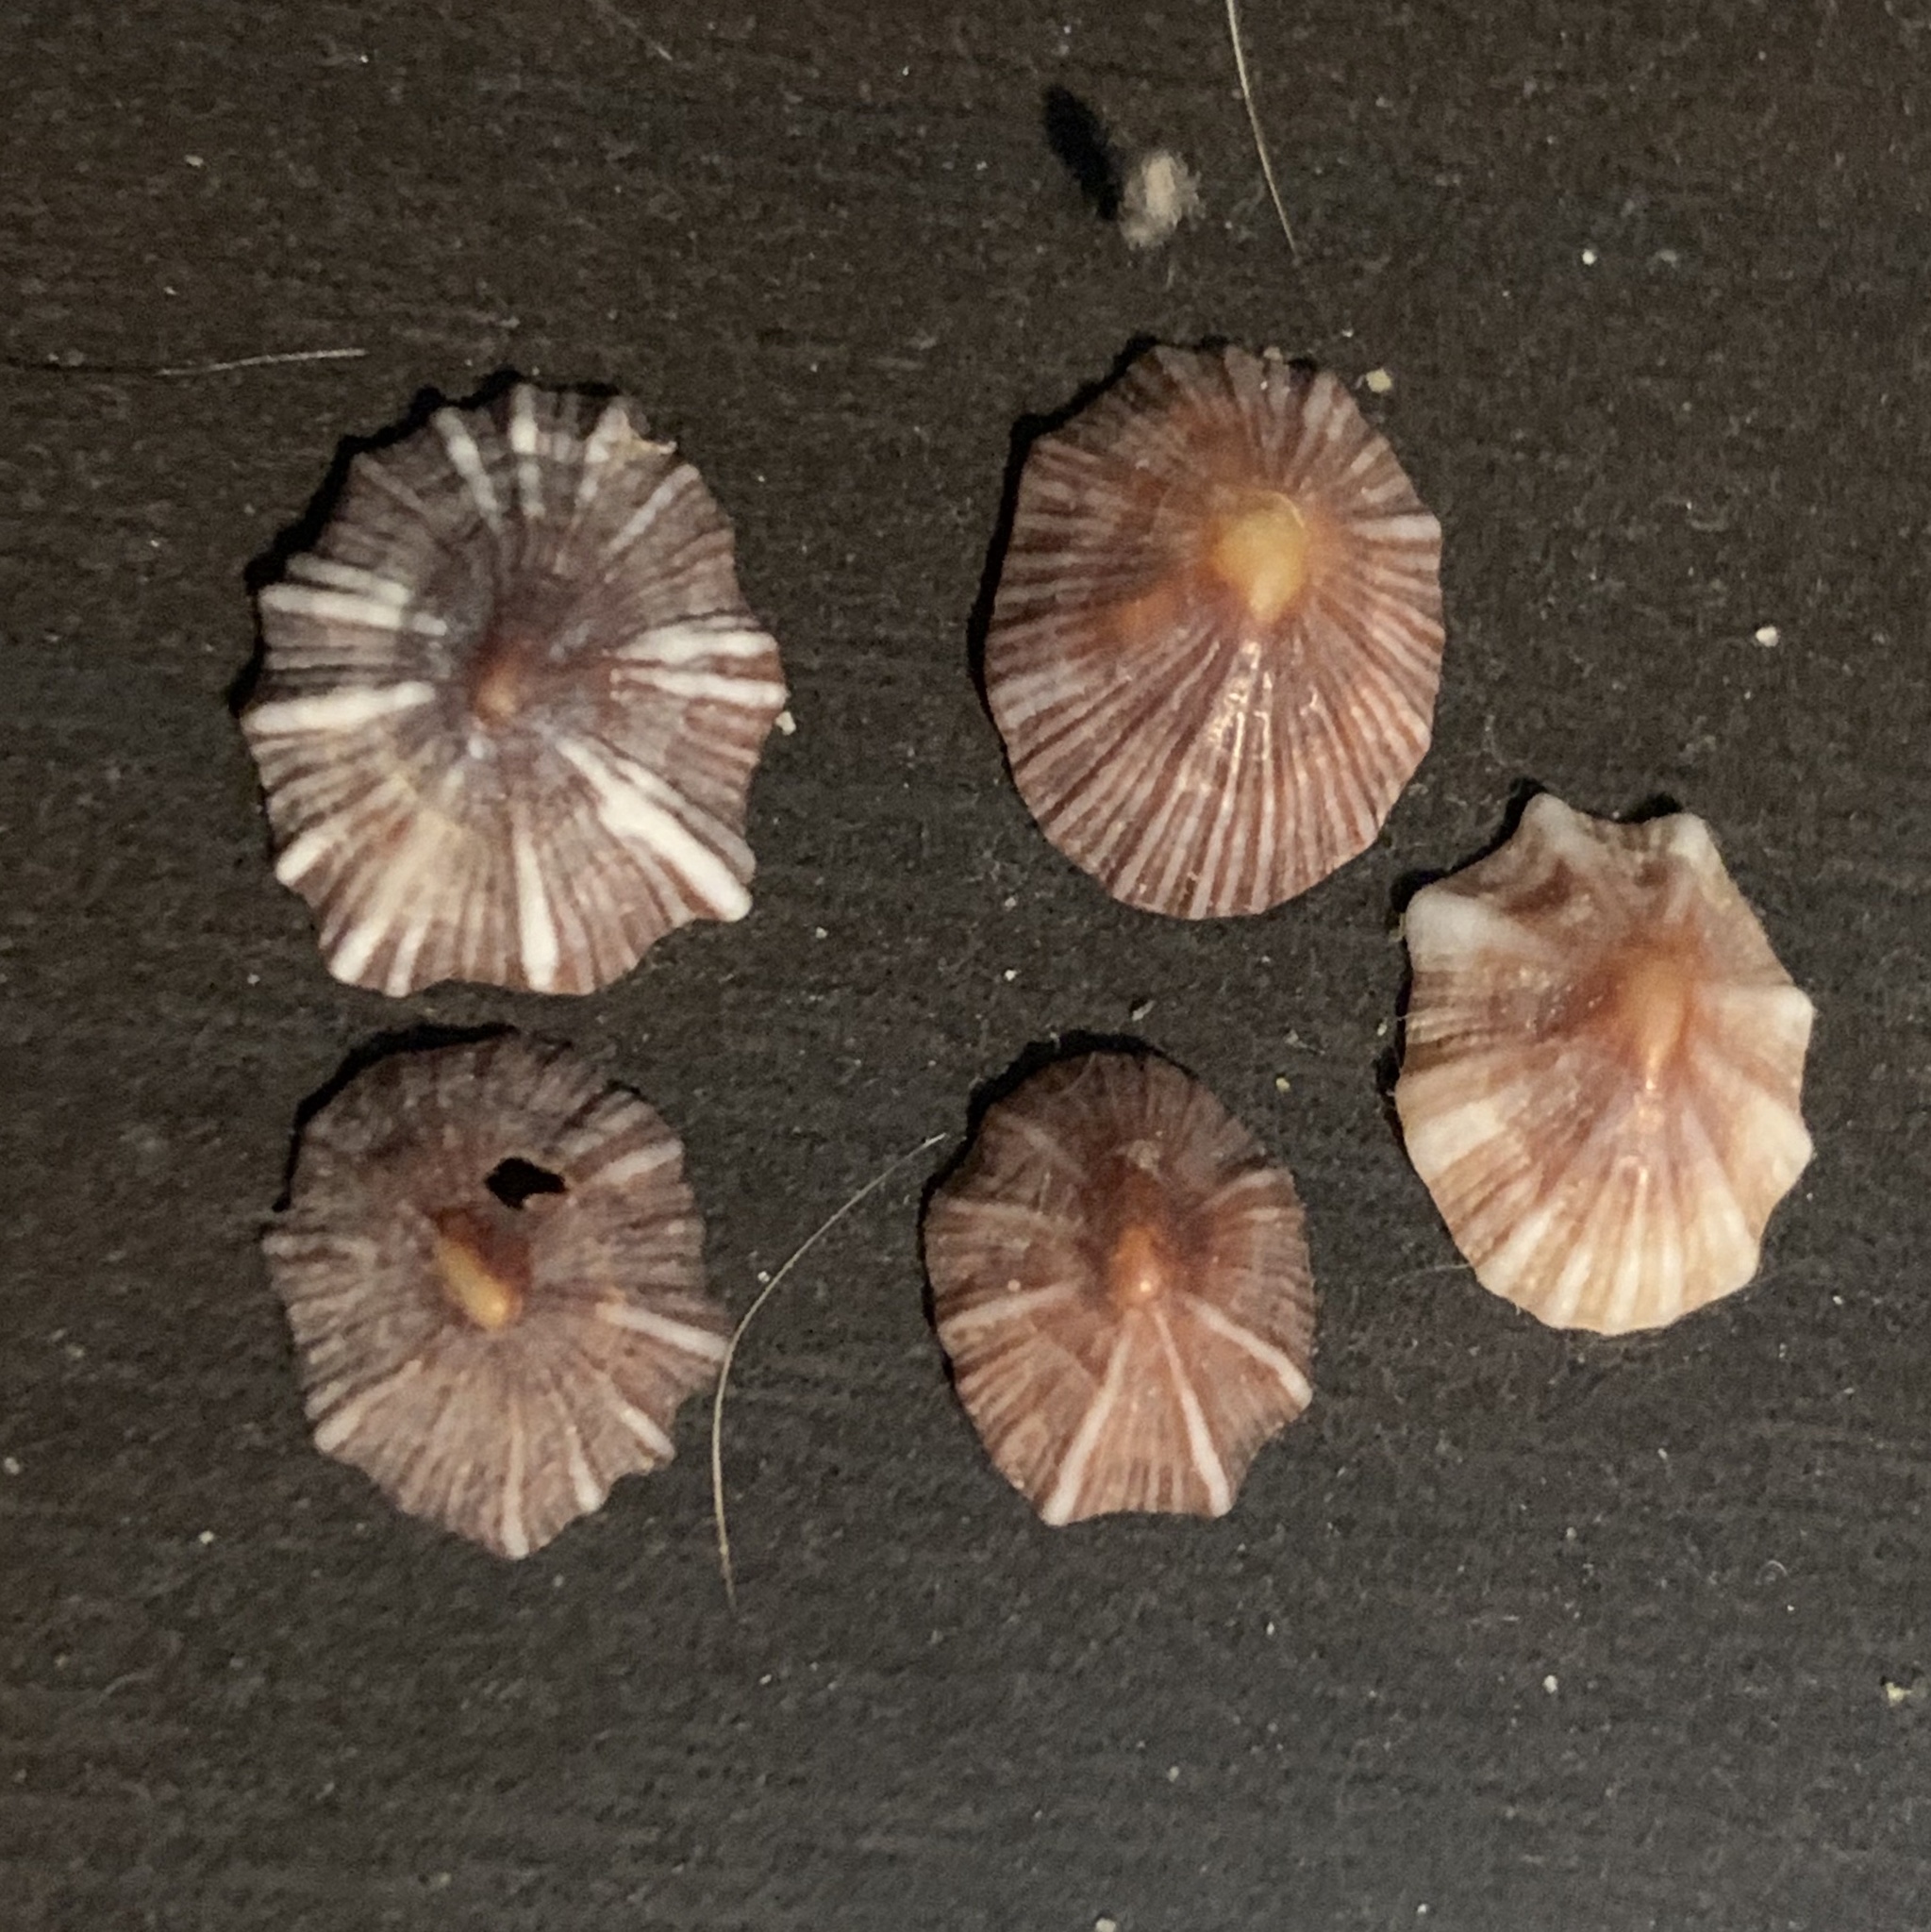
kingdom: Animalia
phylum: Mollusca
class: Gastropoda
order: Siphonariida
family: Siphonariidae
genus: Siphonaria
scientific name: Siphonaria normalis
